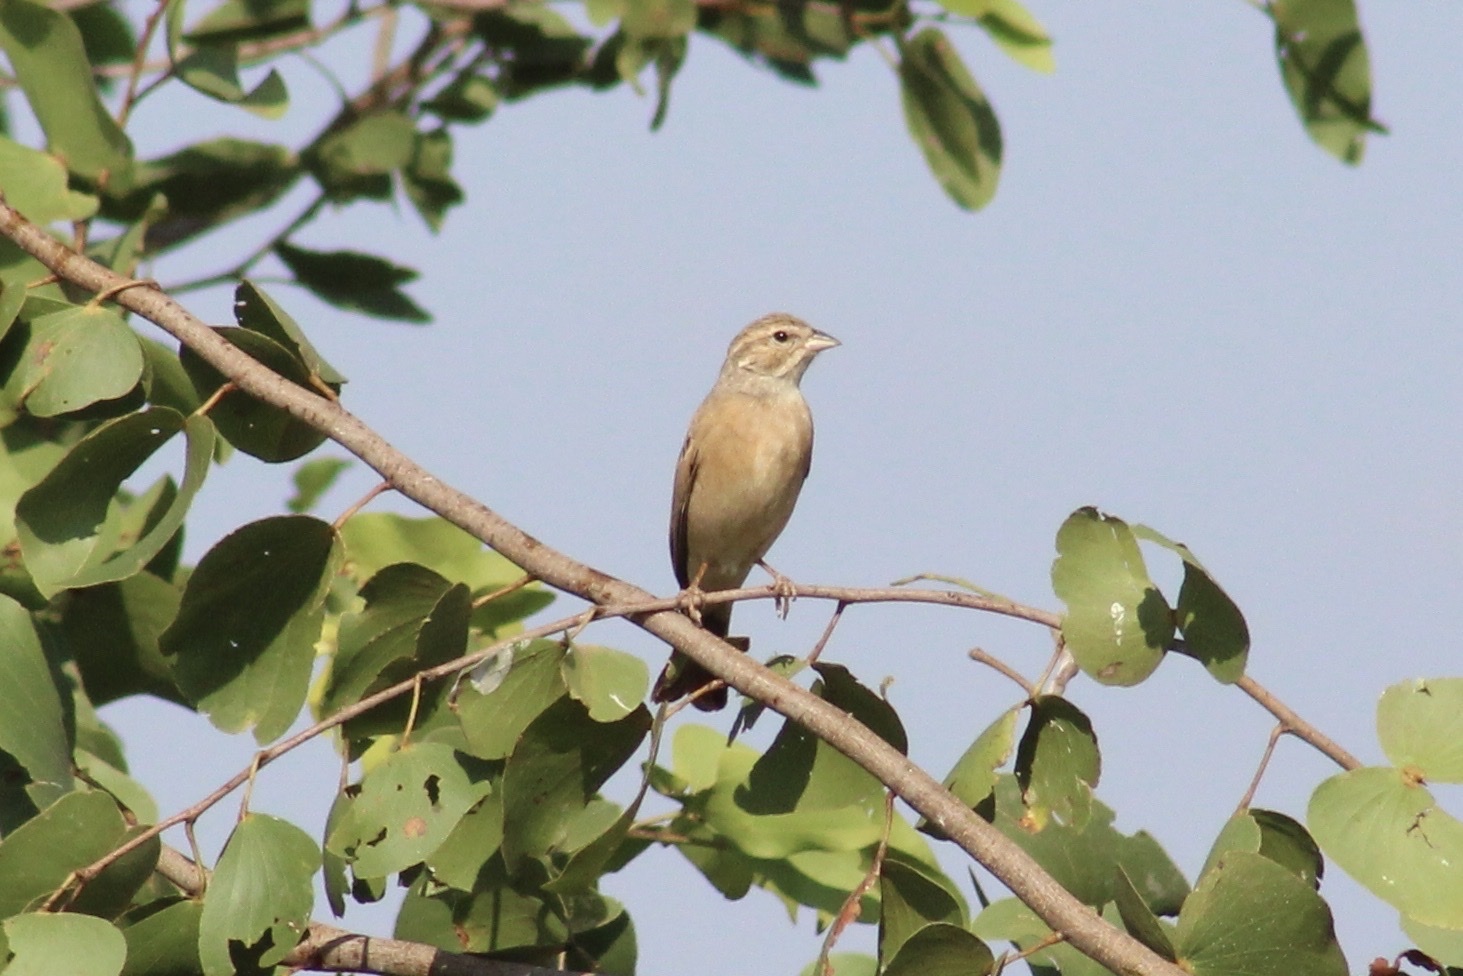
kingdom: Animalia
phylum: Chordata
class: Aves
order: Passeriformes
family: Emberizidae
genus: Emberiza
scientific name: Emberiza impetuani
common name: Lark-like bunting
